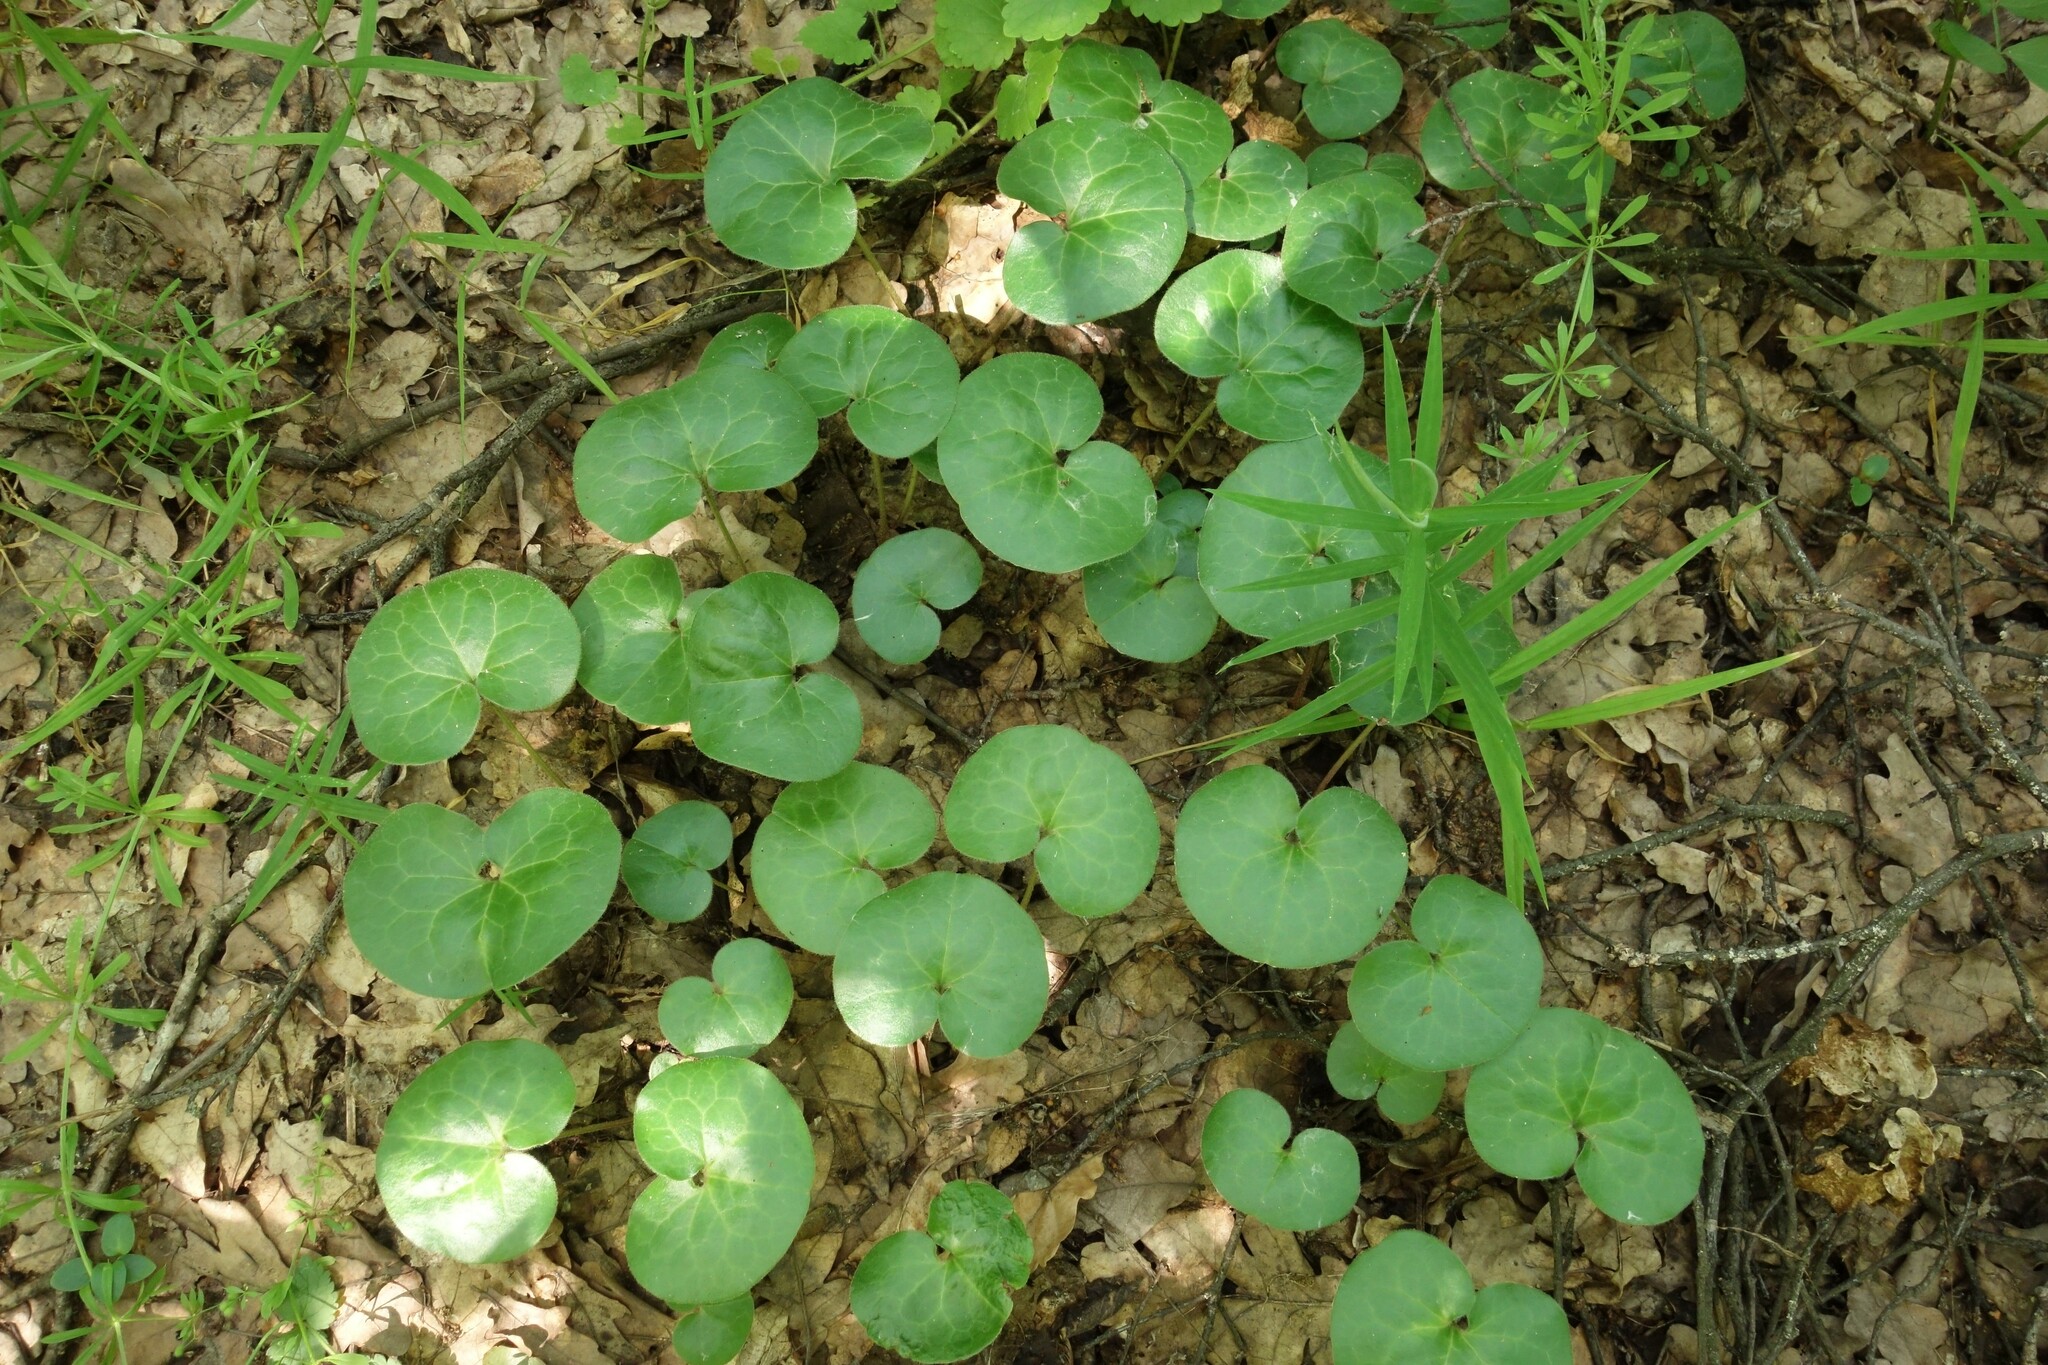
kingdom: Plantae
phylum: Tracheophyta
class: Magnoliopsida
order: Piperales
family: Aristolochiaceae
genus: Asarum
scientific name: Asarum europaeum
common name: Asarabacca
